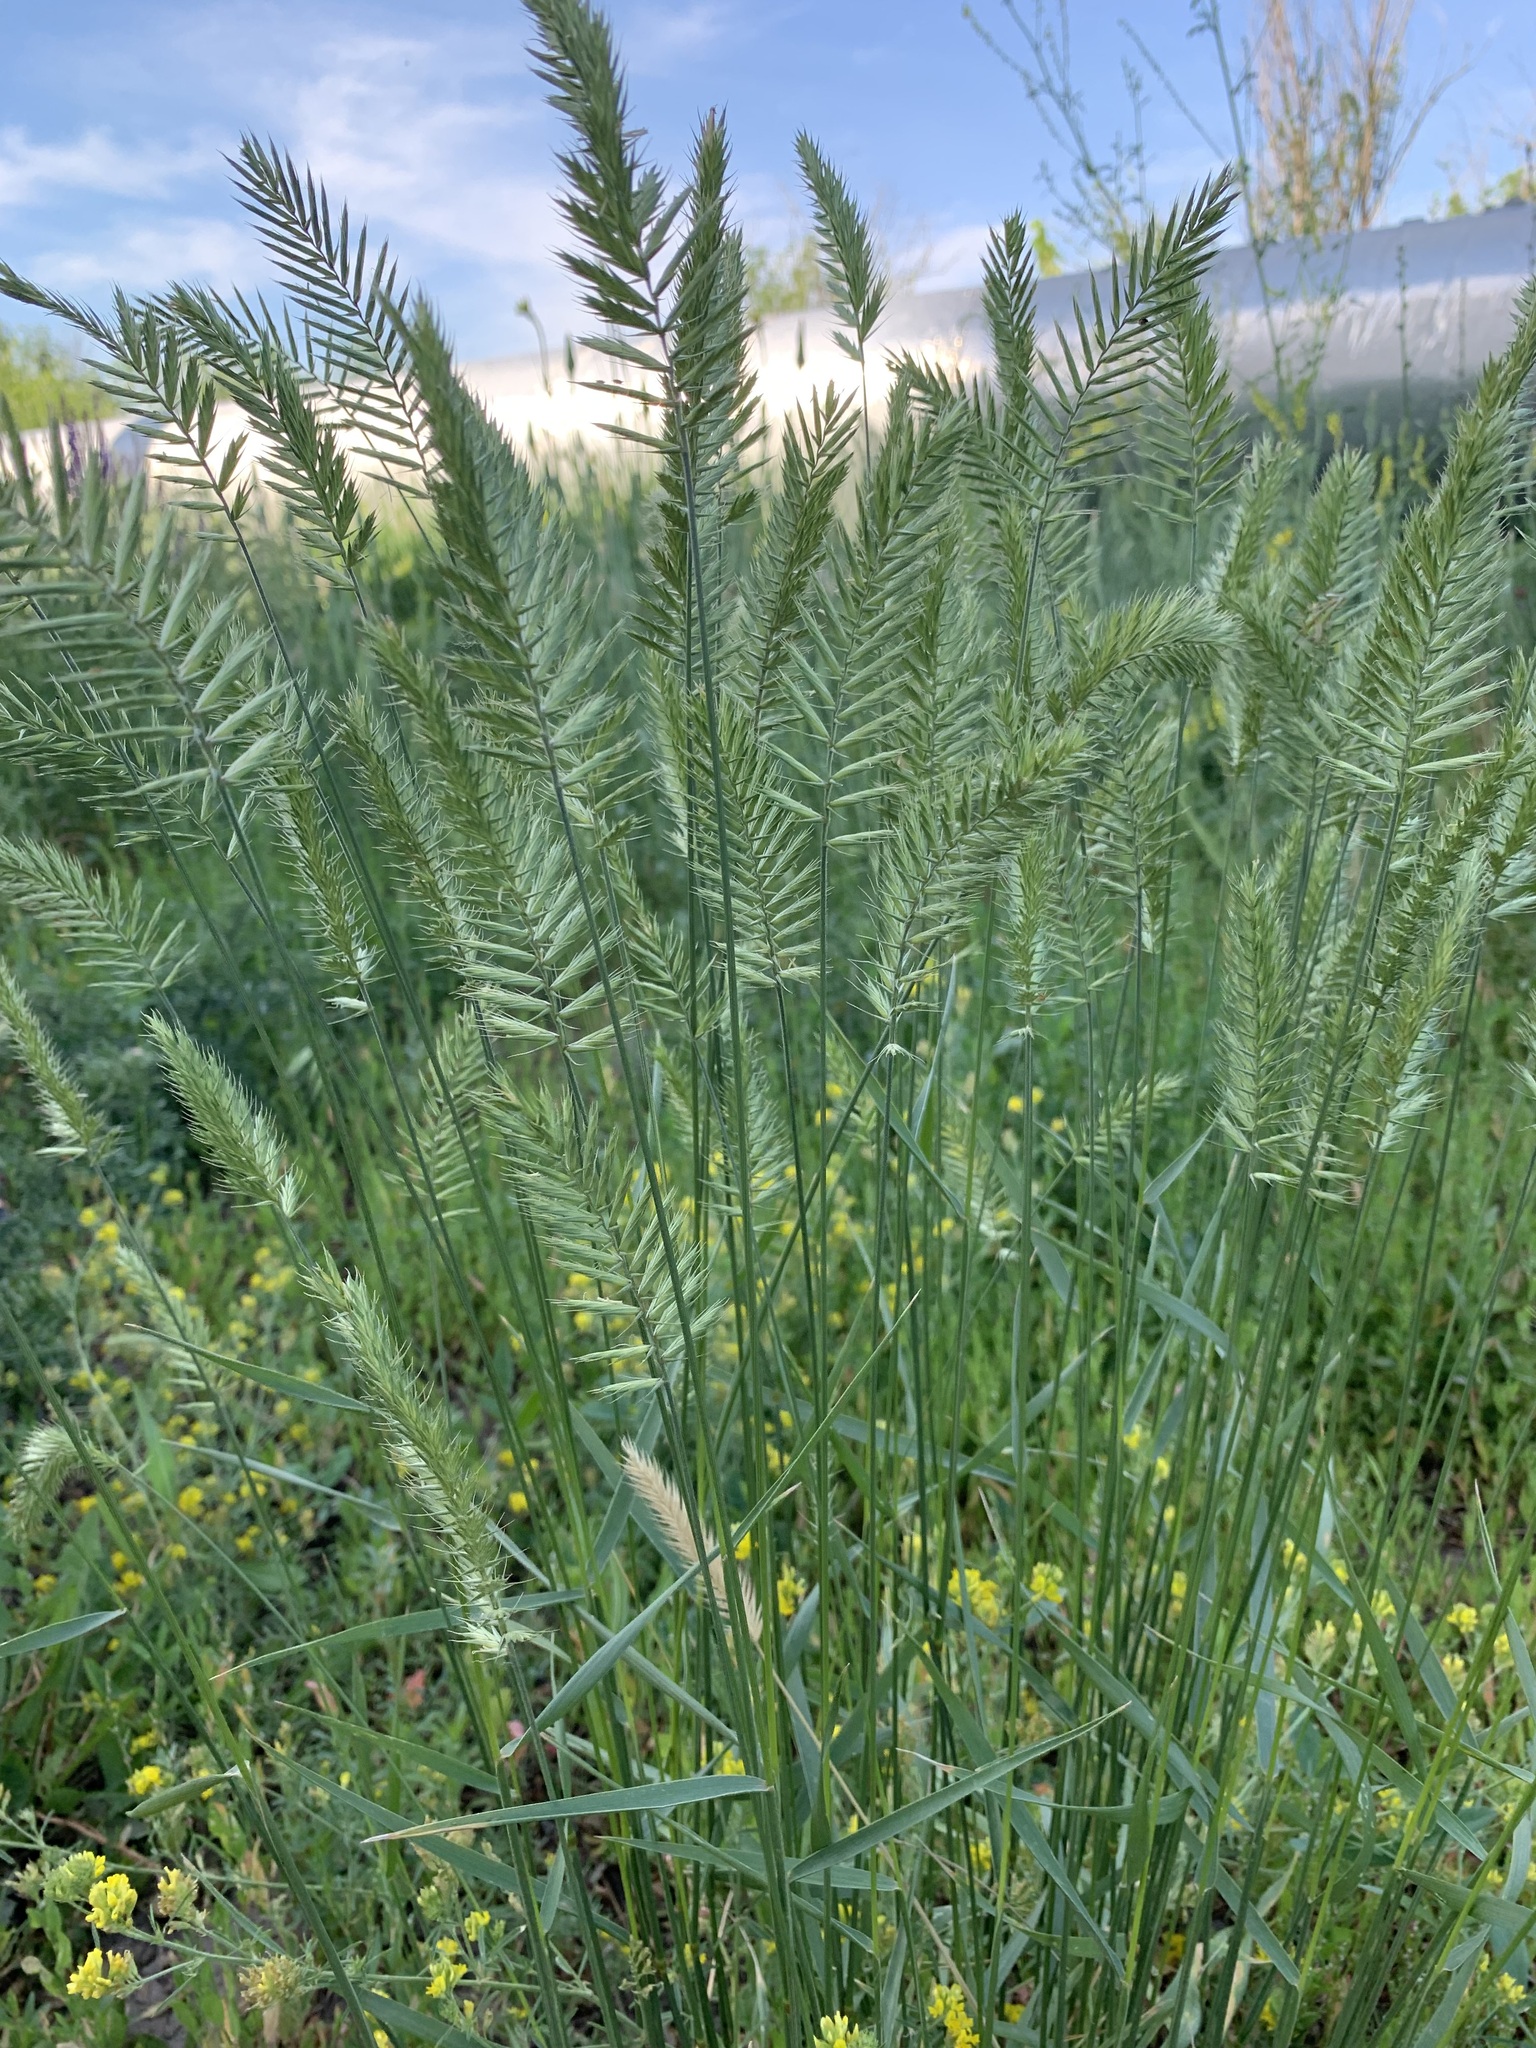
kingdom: Plantae
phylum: Tracheophyta
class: Liliopsida
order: Poales
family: Poaceae
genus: Agropyron
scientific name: Agropyron cristatum
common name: Crested wheatgrass
